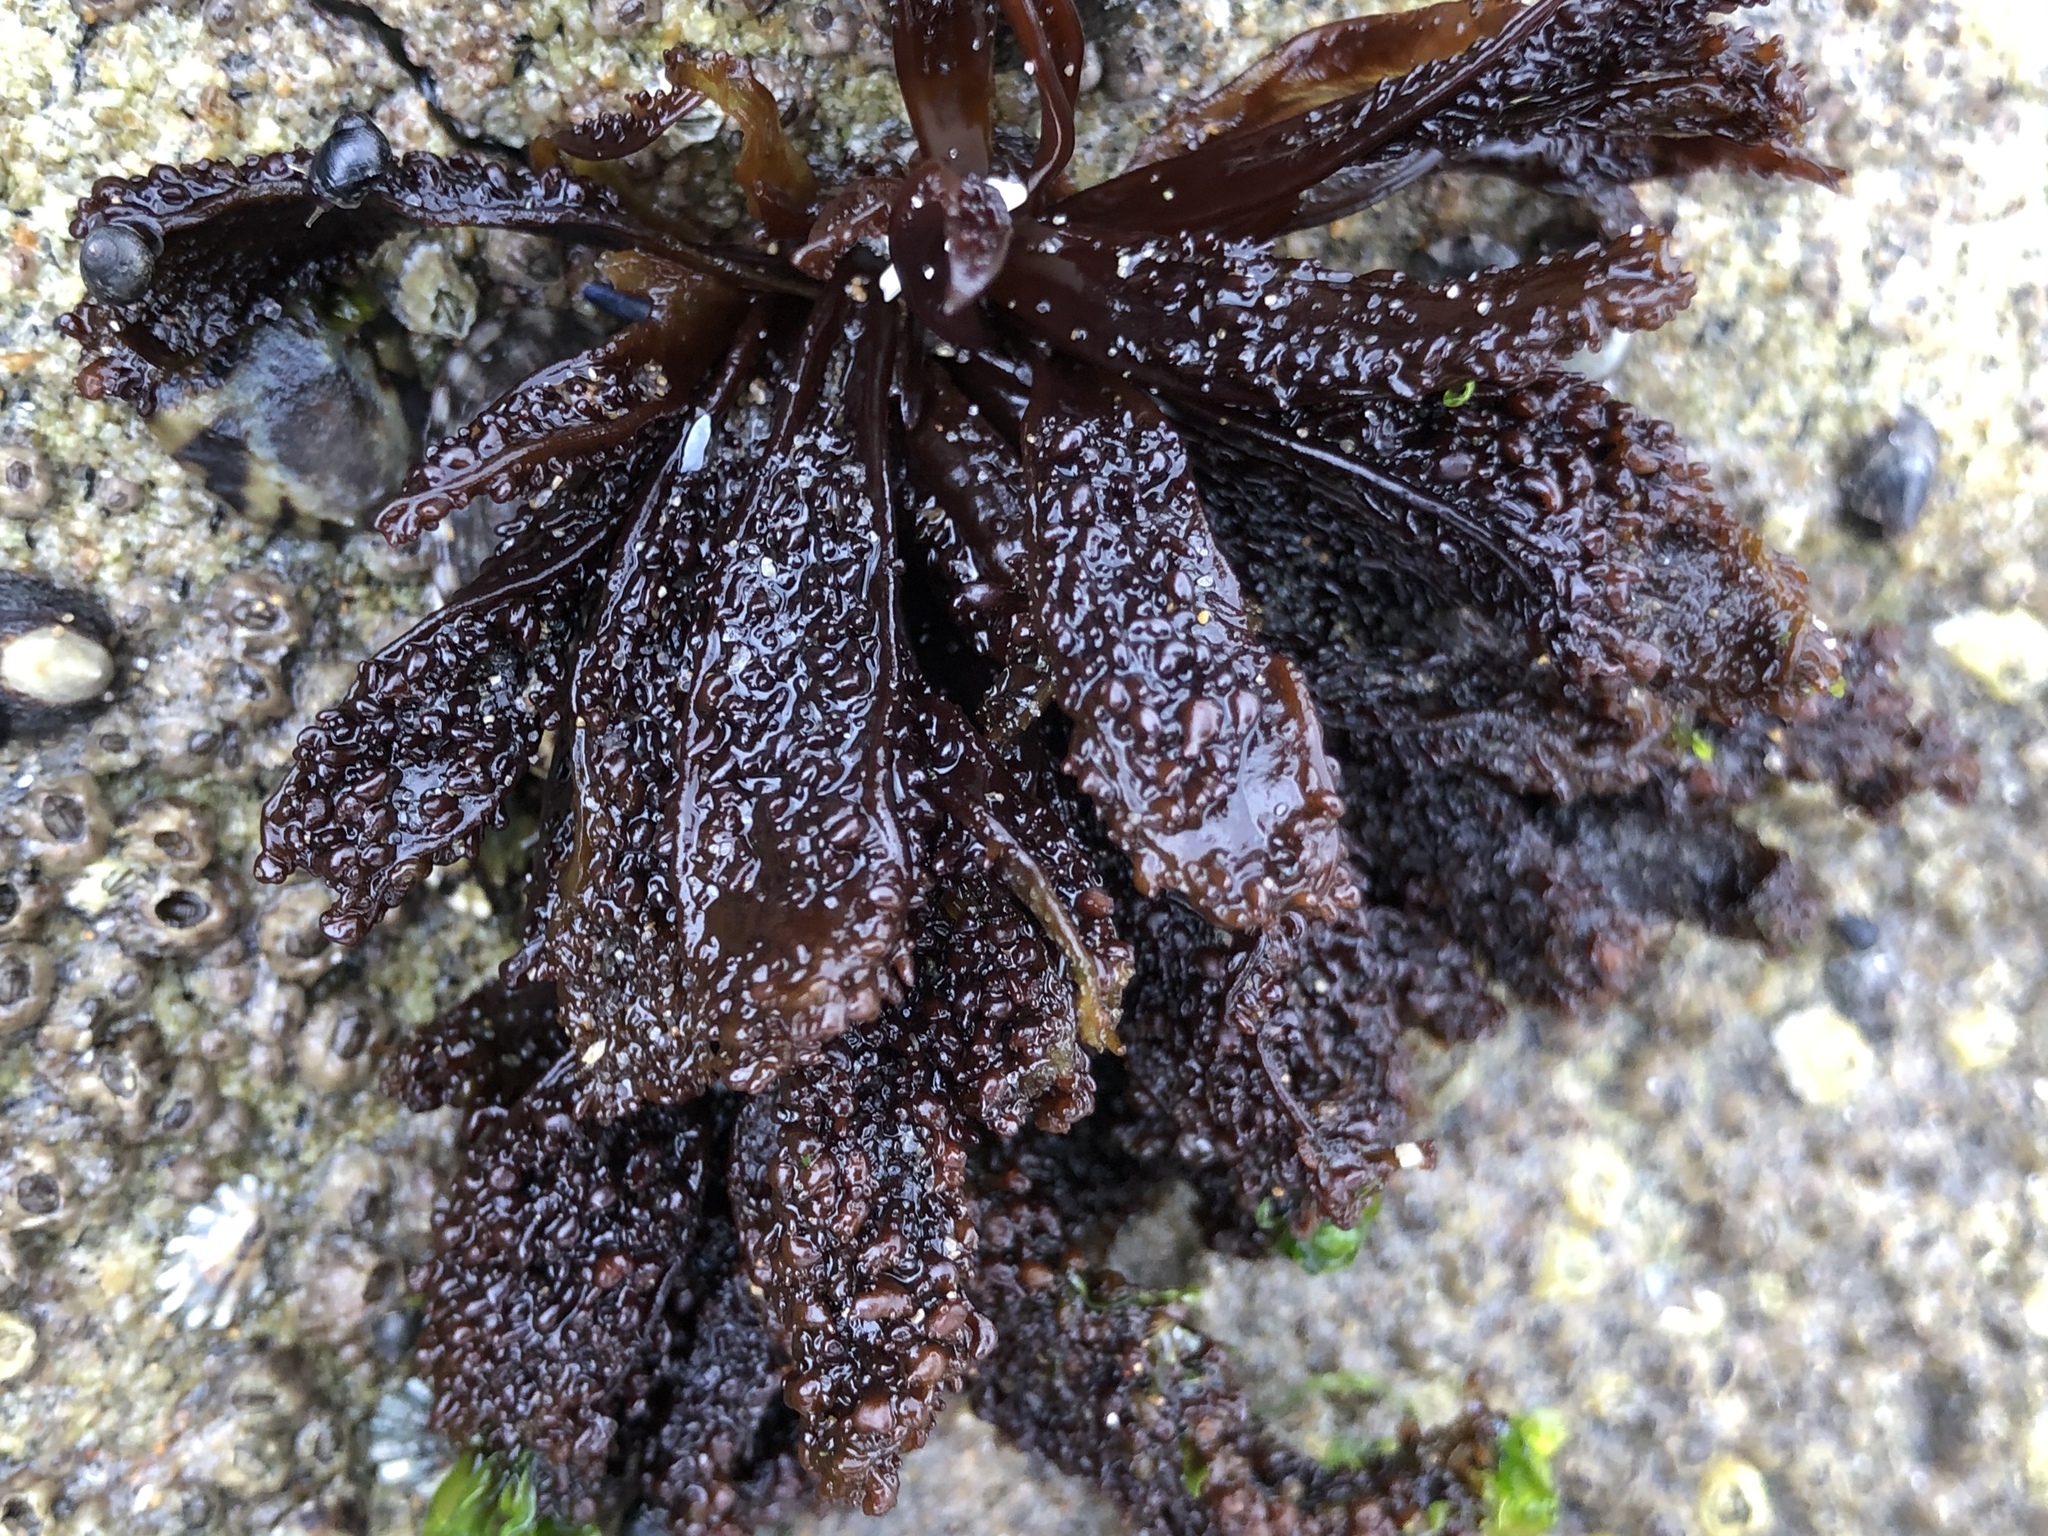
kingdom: Plantae
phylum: Rhodophyta
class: Florideophyceae
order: Gigartinales
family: Phyllophoraceae
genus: Mastocarpus
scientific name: Mastocarpus papillatus
